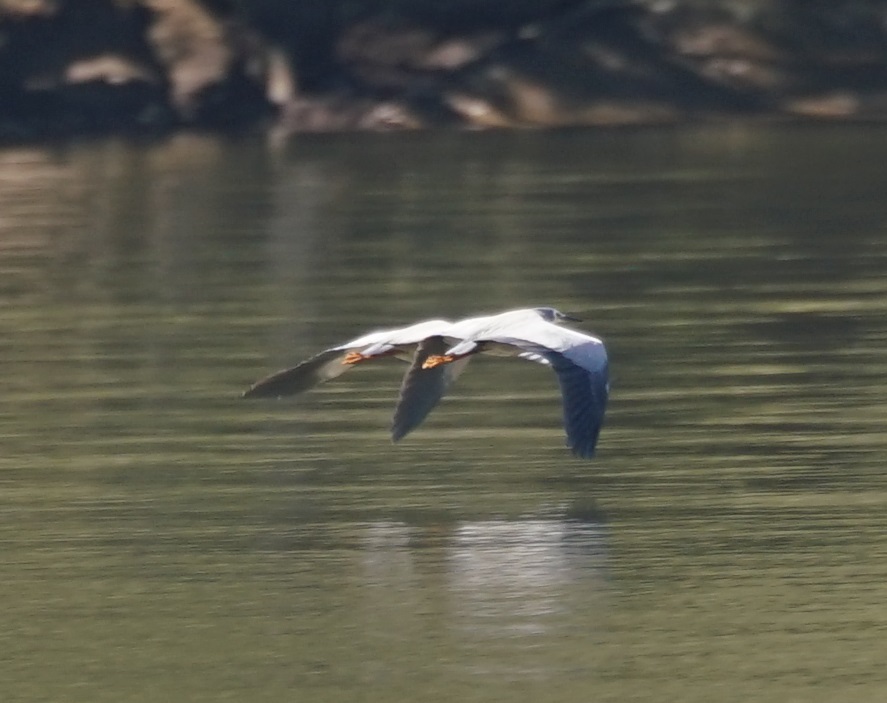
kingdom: Animalia
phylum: Chordata
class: Aves
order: Pelecaniformes
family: Ardeidae
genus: Egretta
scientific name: Egretta novaehollandiae
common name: White-faced heron
